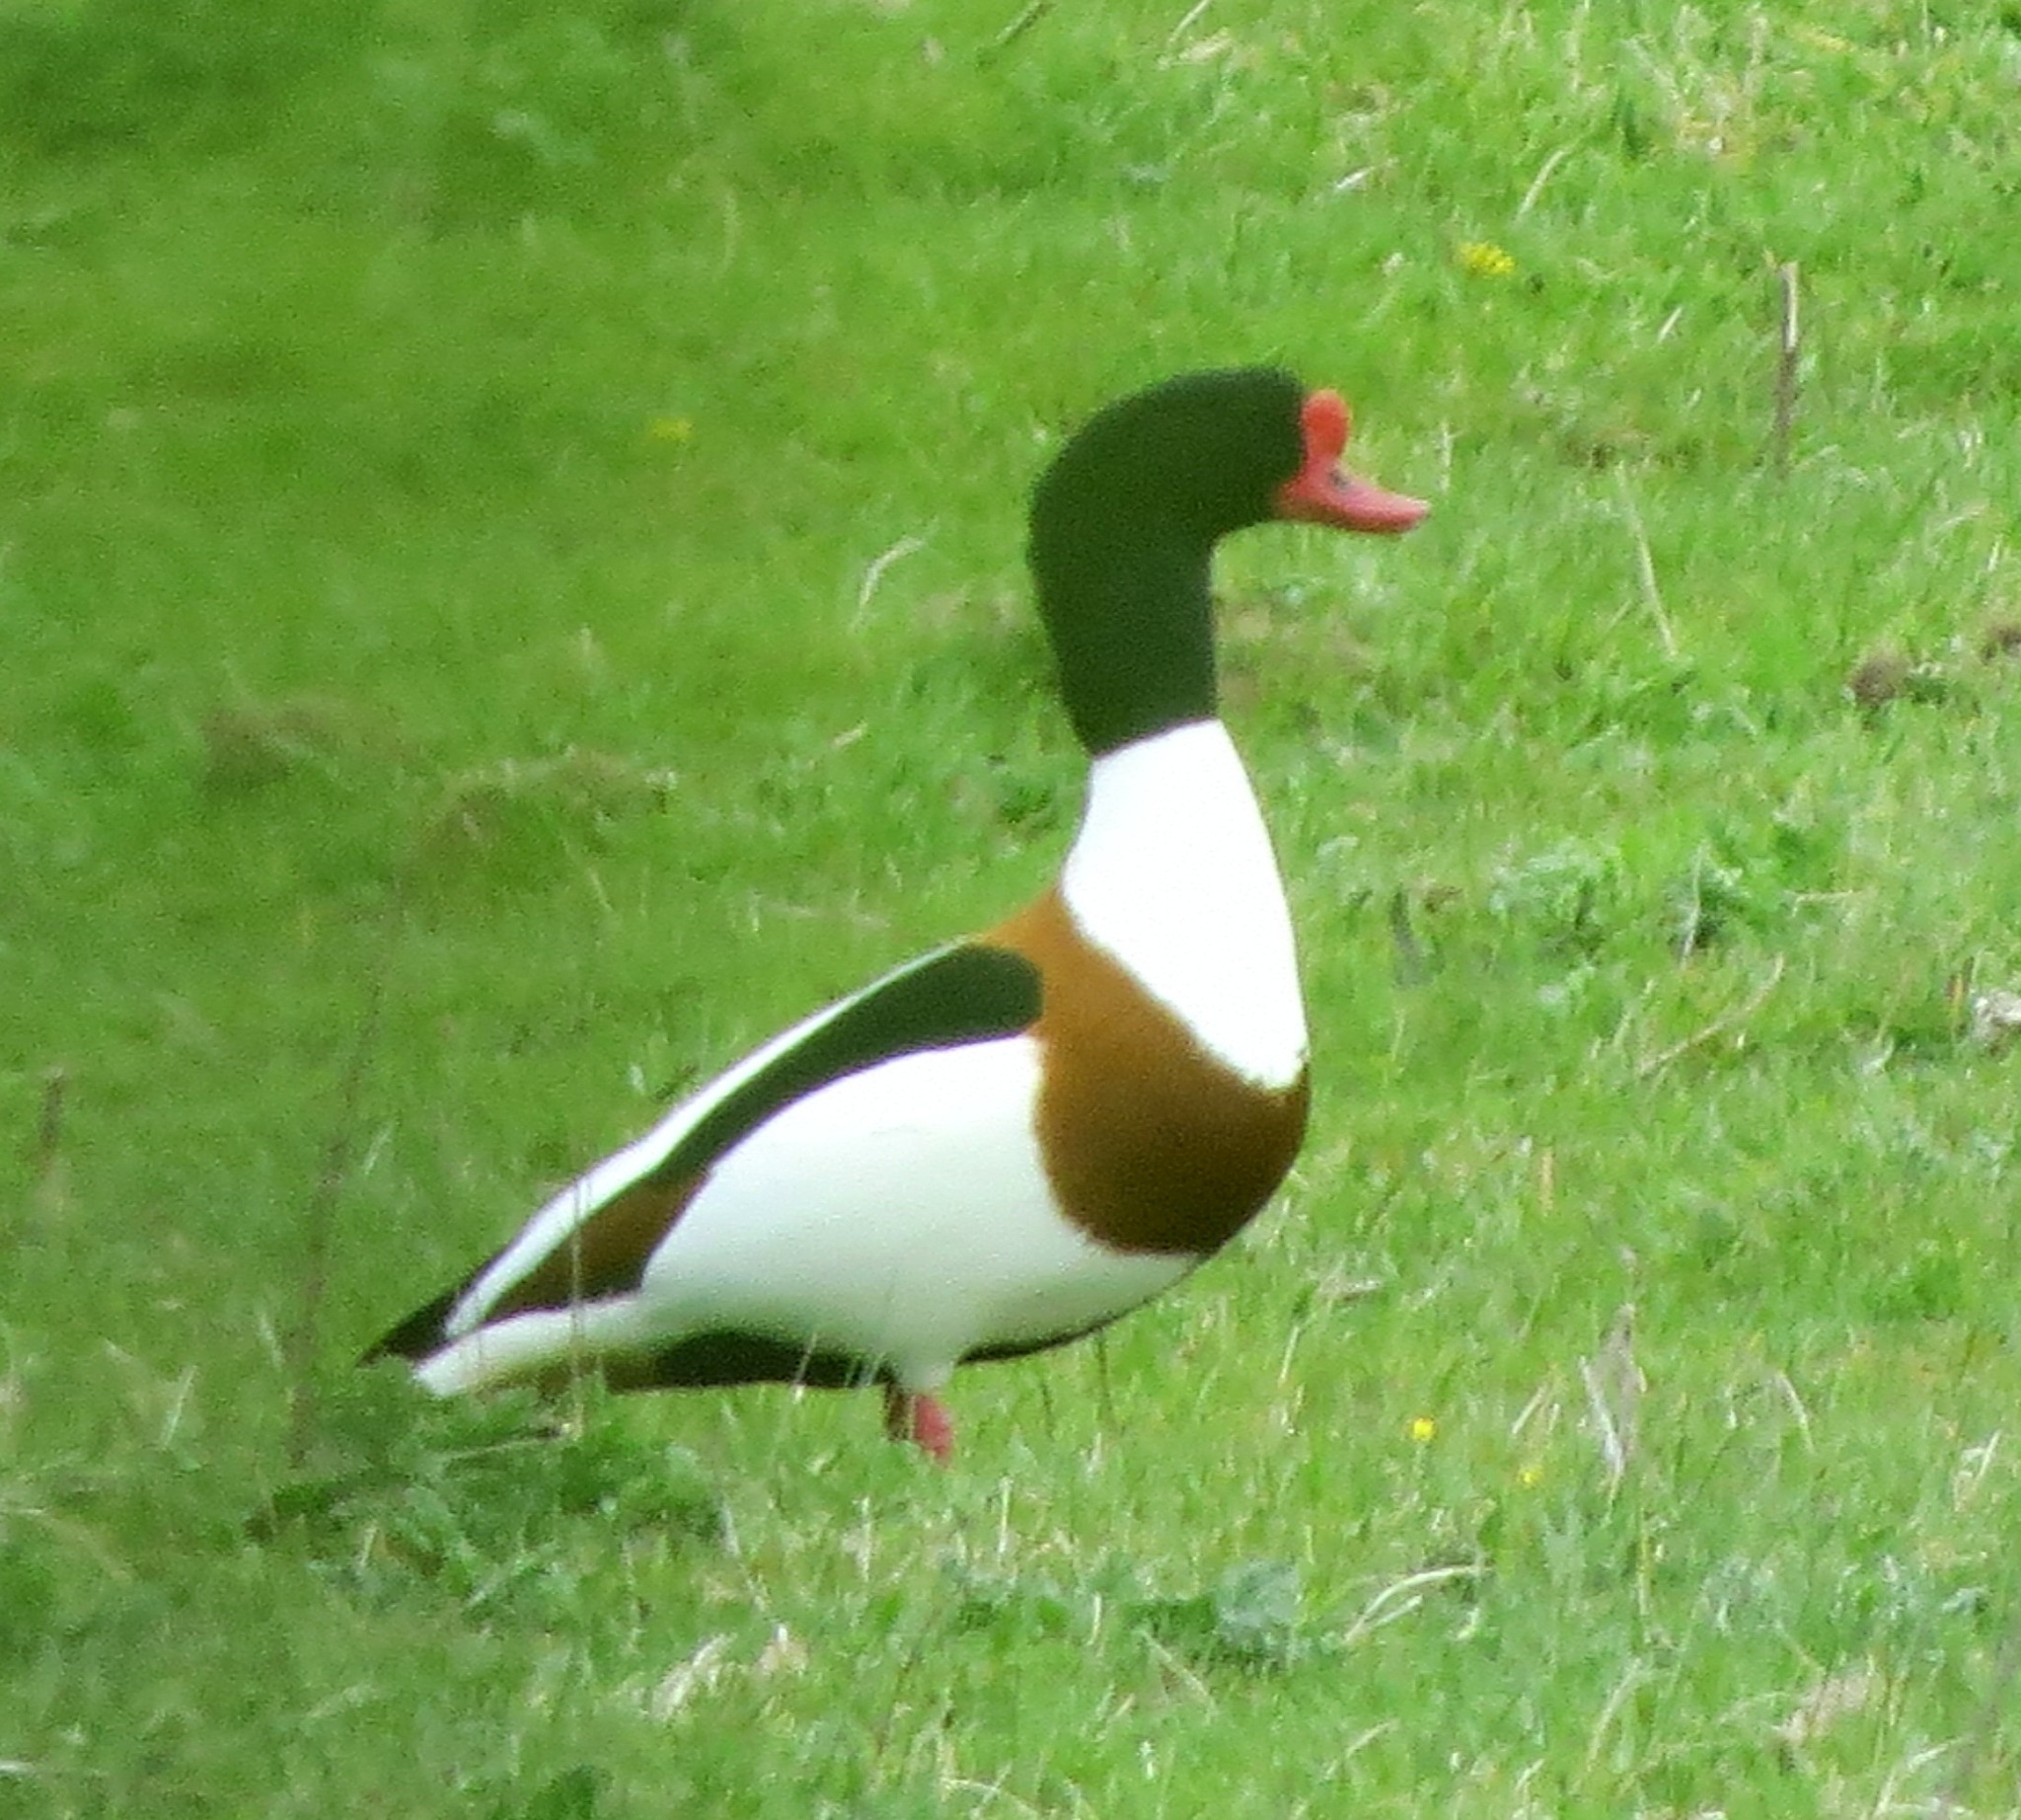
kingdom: Animalia
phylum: Chordata
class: Aves
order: Anseriformes
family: Anatidae
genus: Tadorna
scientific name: Tadorna tadorna
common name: Common shelduck
